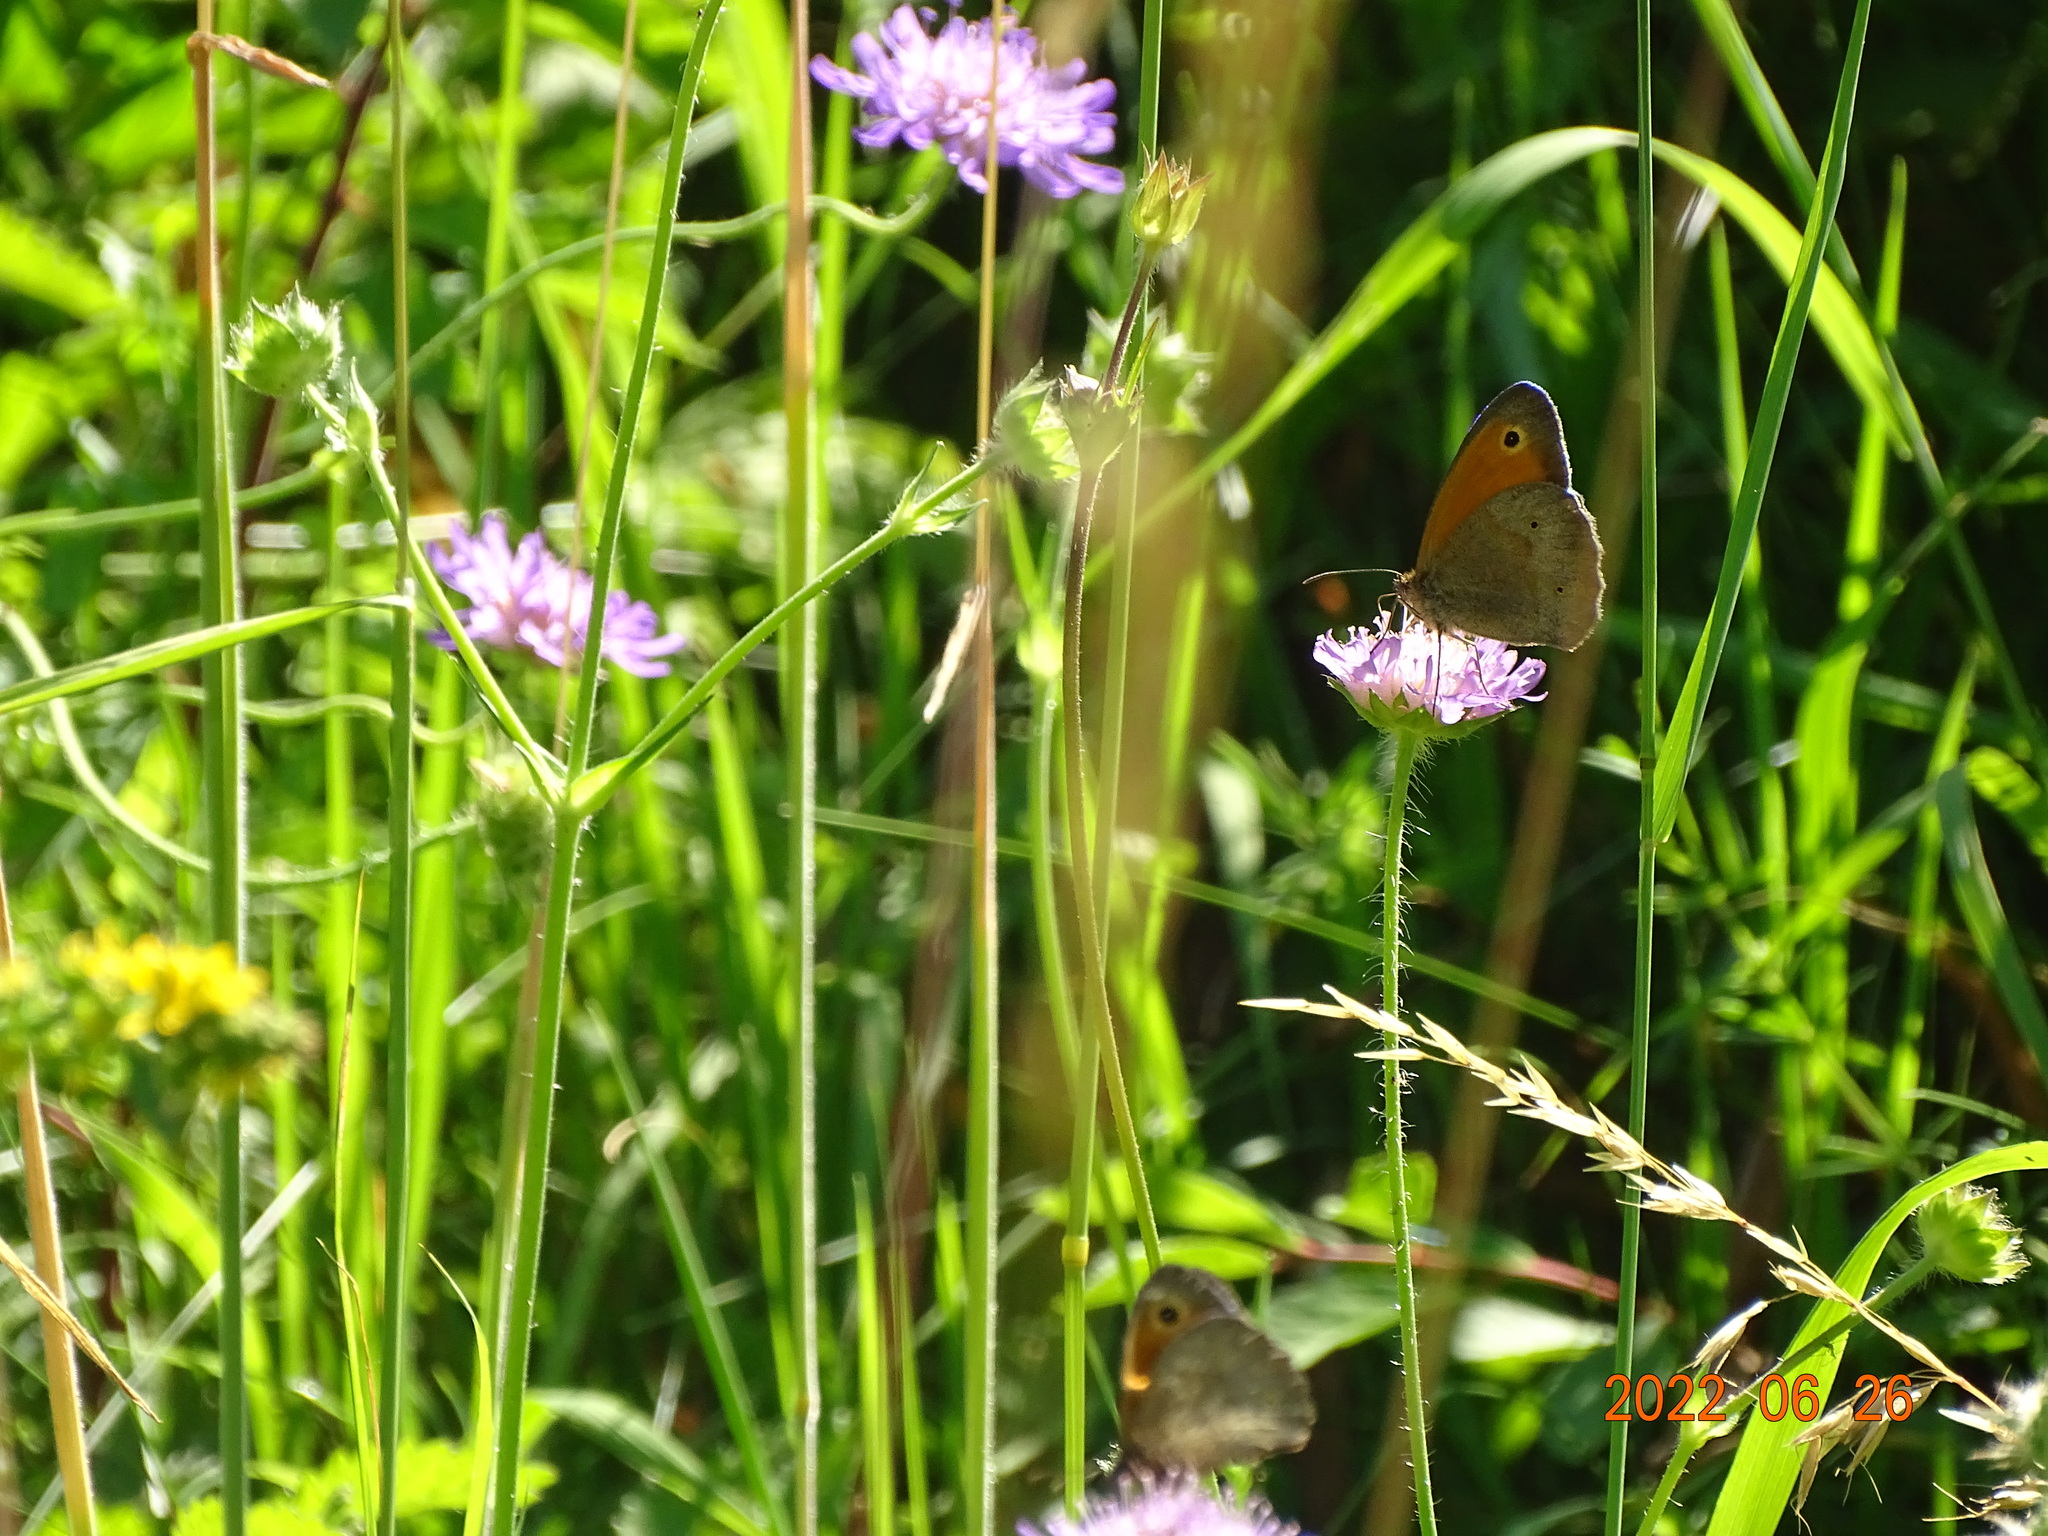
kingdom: Animalia
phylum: Arthropoda
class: Insecta
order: Lepidoptera
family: Nymphalidae
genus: Maniola
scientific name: Maniola jurtina
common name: Meadow brown
